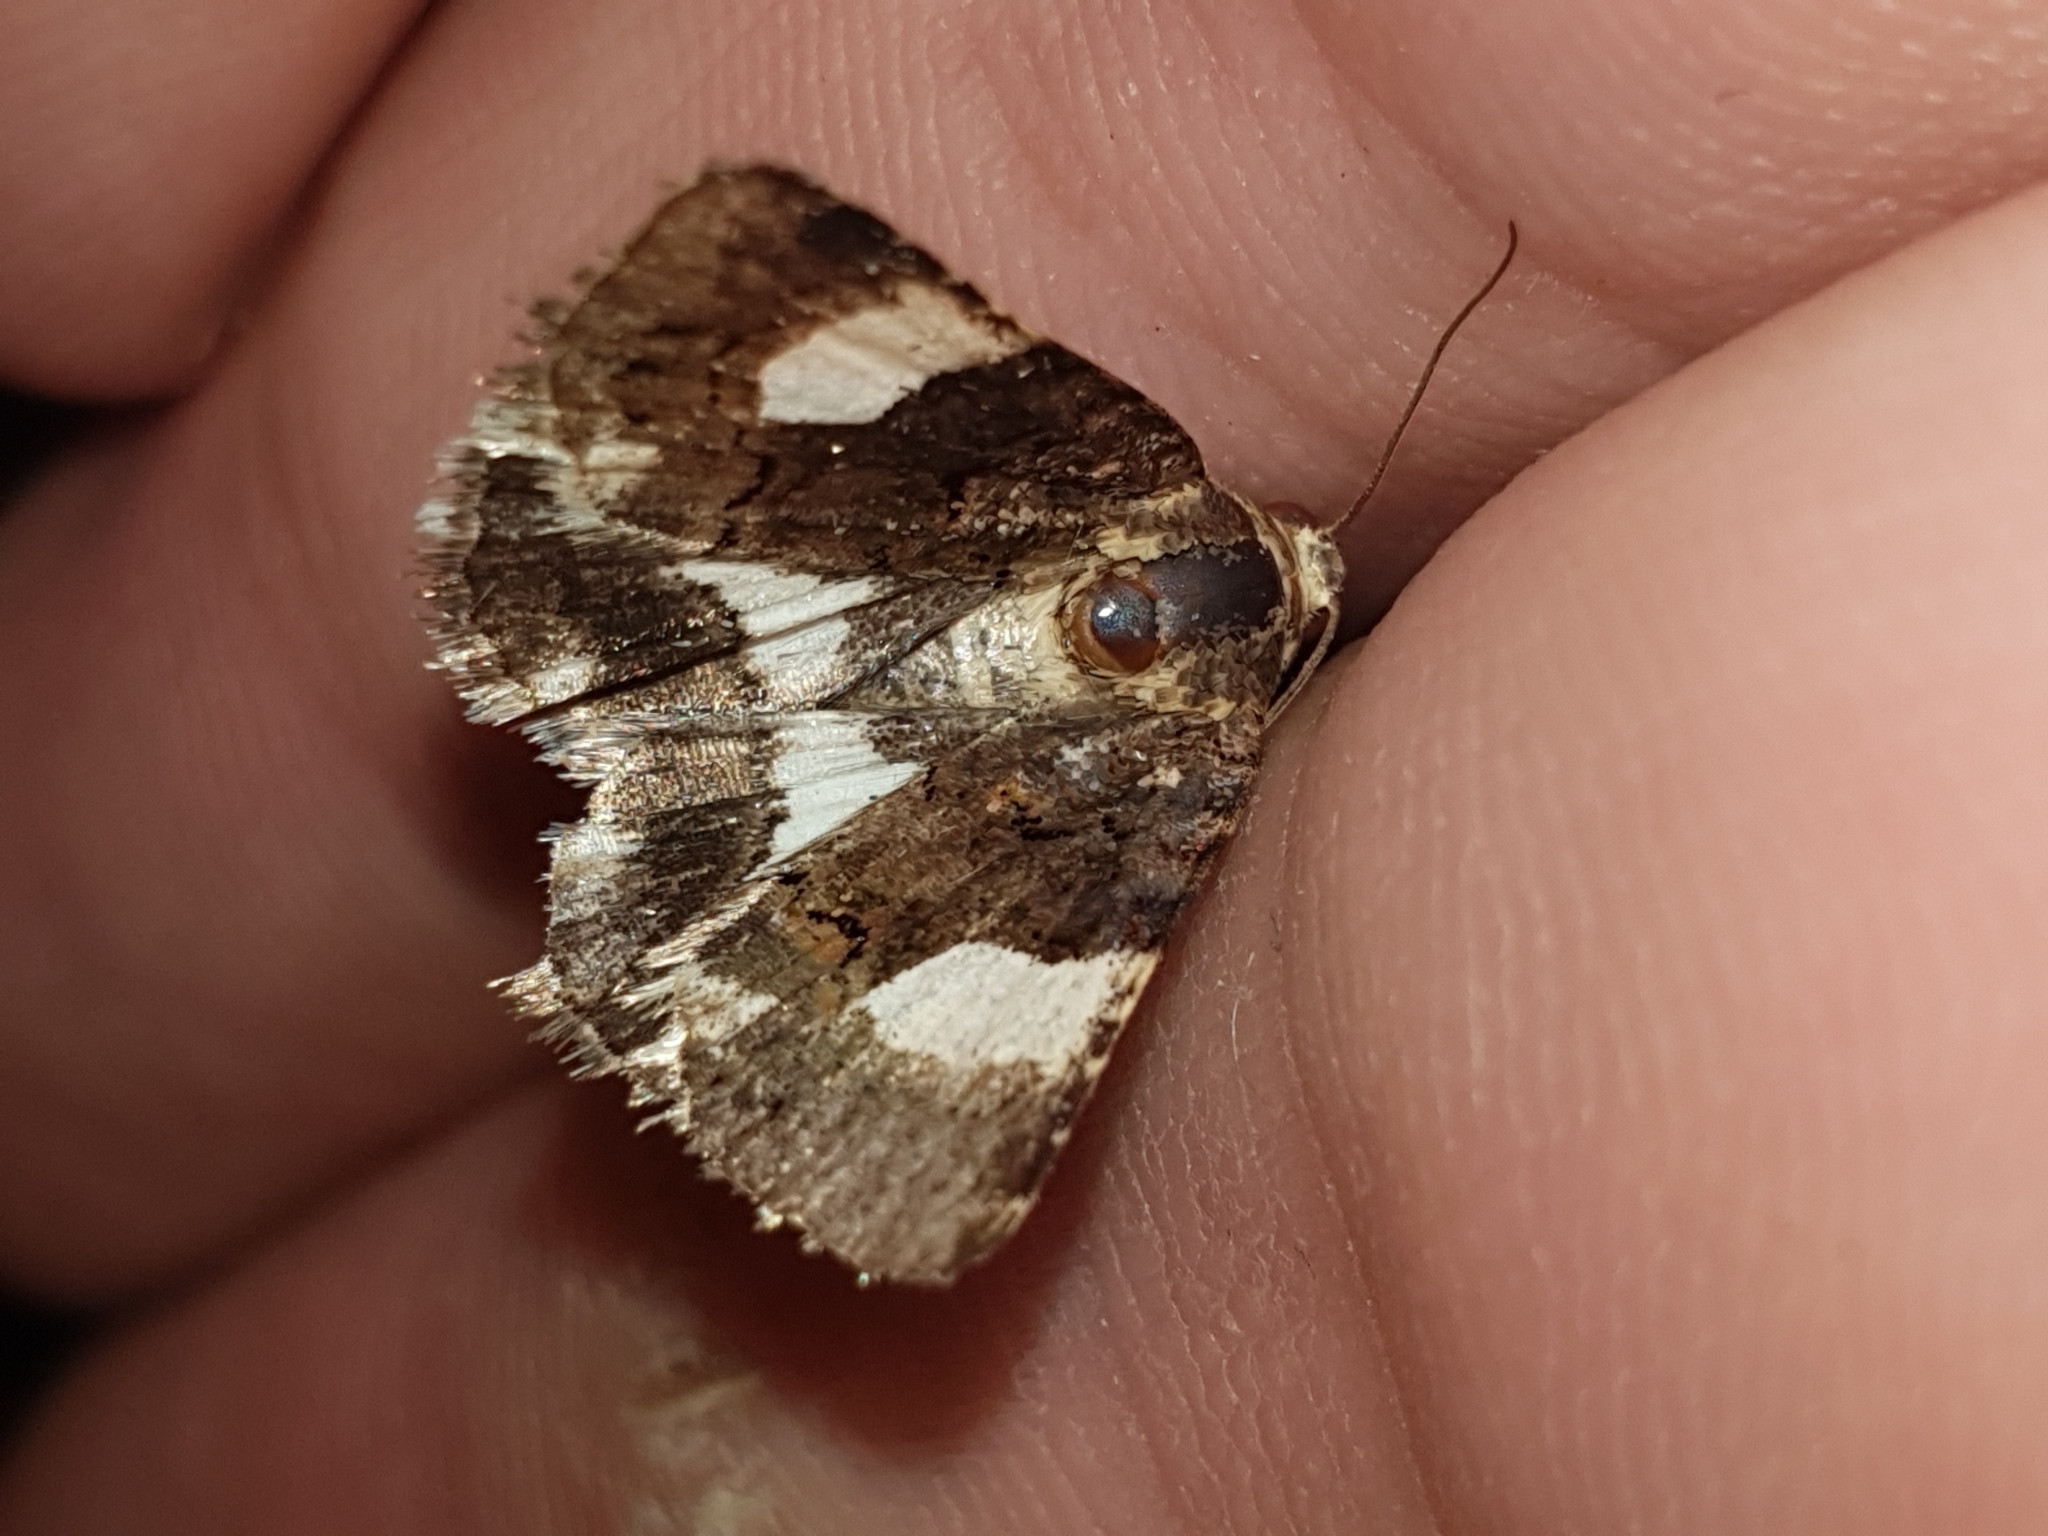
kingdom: Animalia
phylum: Arthropoda
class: Insecta
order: Lepidoptera
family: Erebidae
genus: Tyta
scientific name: Tyta luctuosa
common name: Four-spotted
